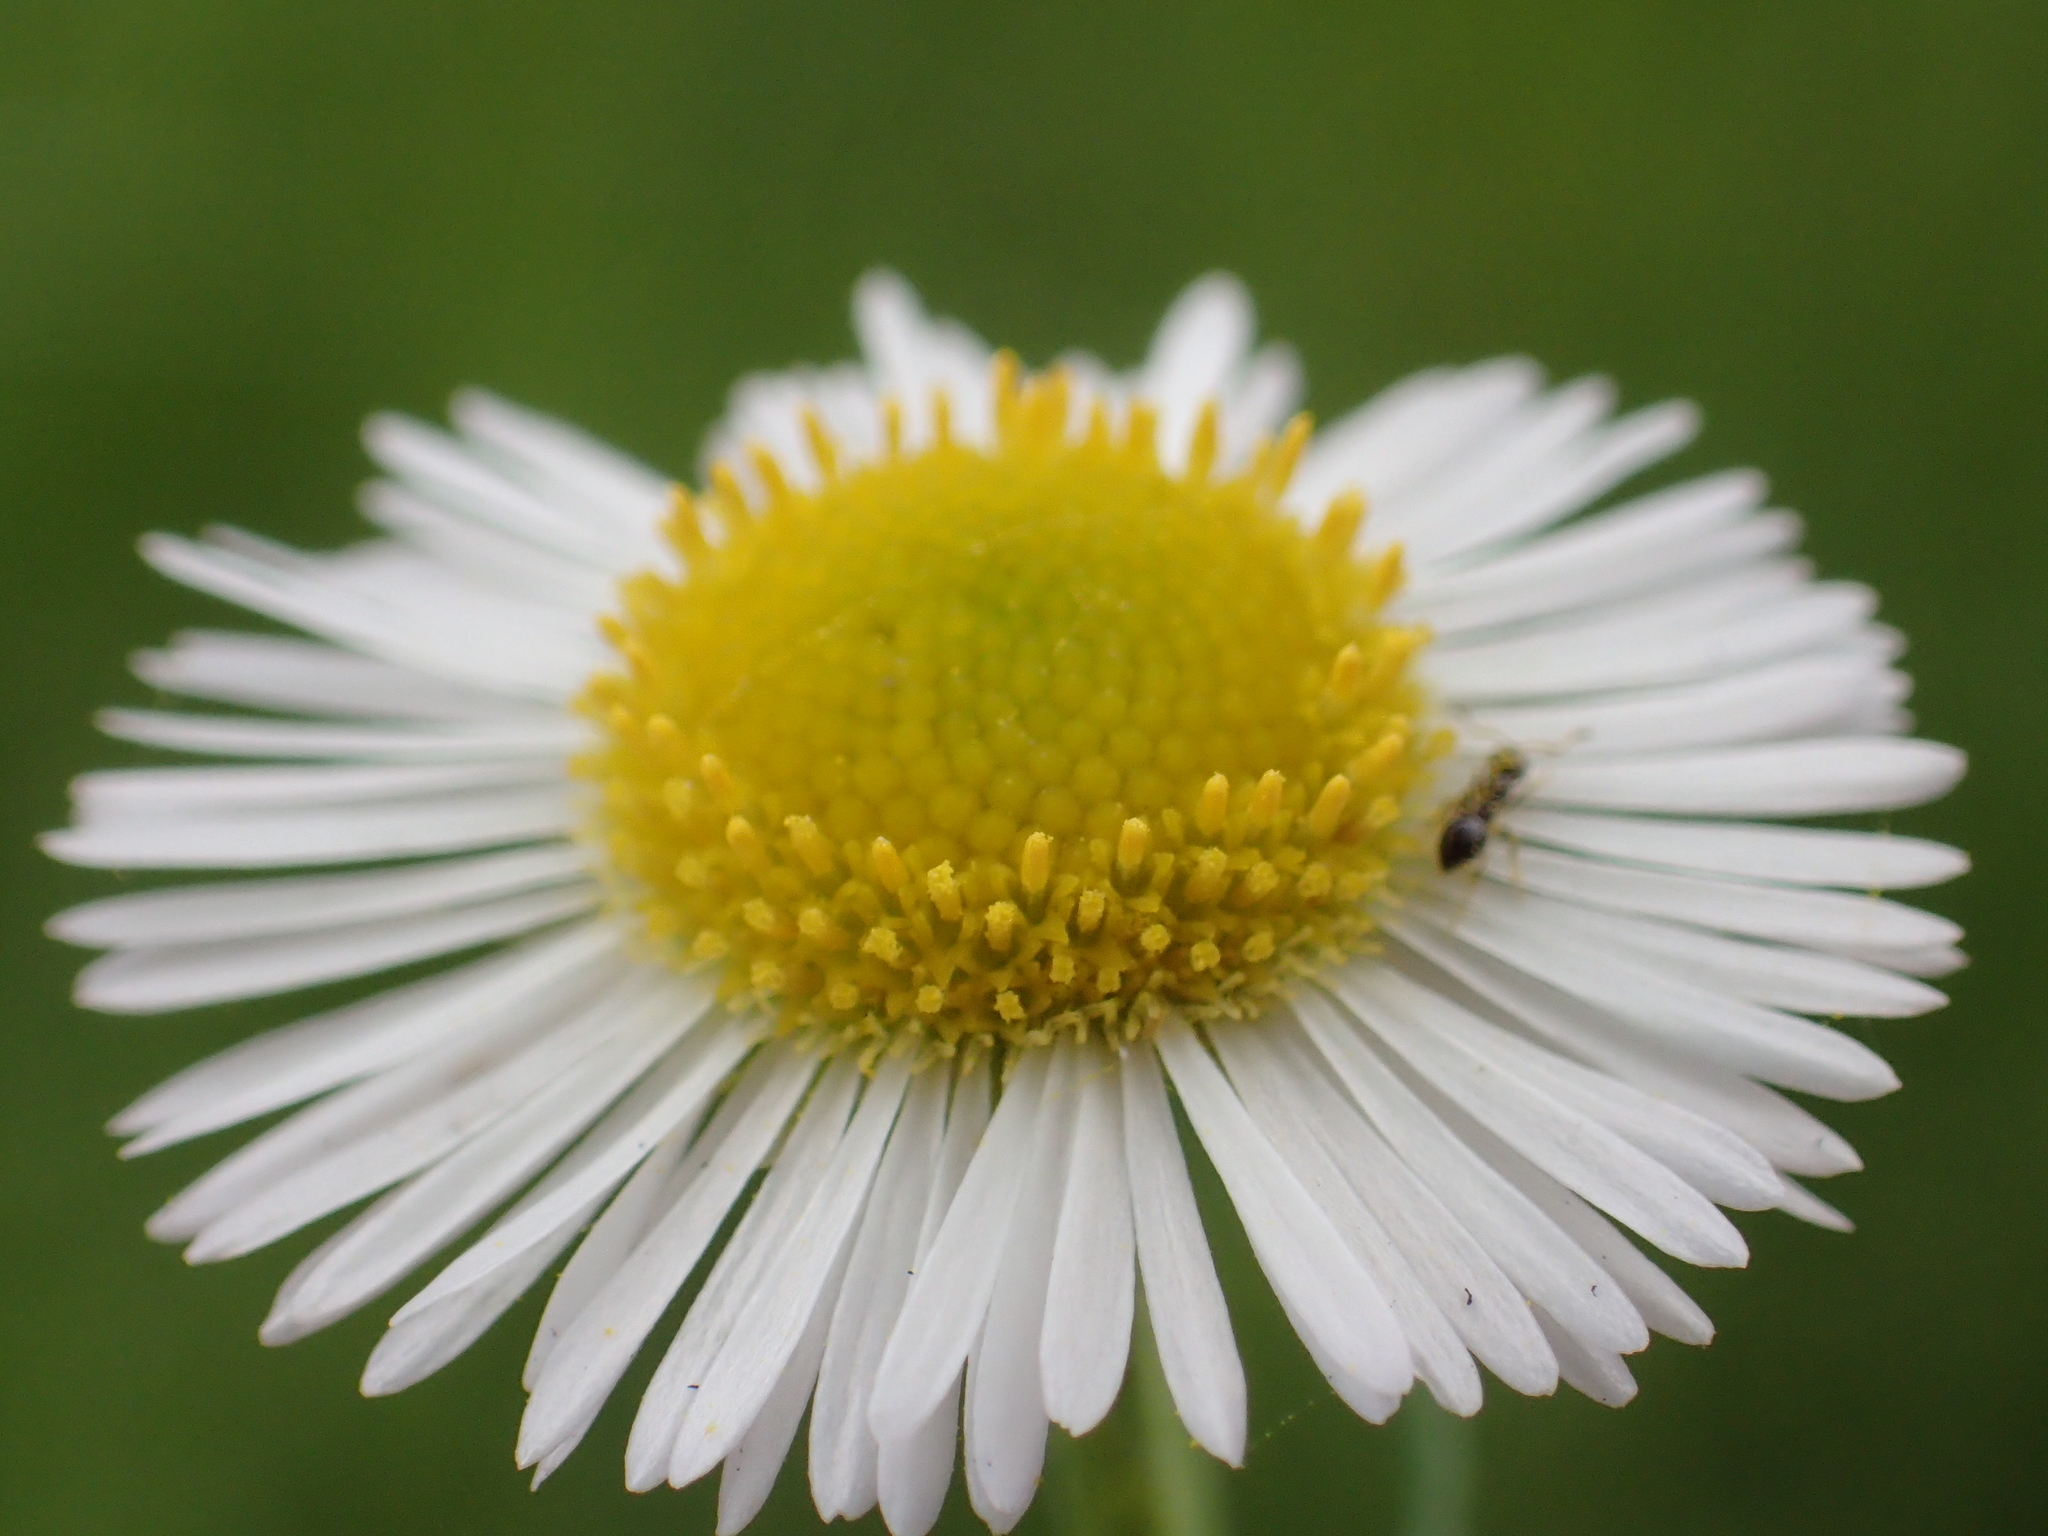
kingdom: Plantae
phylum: Tracheophyta
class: Magnoliopsida
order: Asterales
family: Asteraceae
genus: Erigeron
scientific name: Erigeron annuus
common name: Tall fleabane
